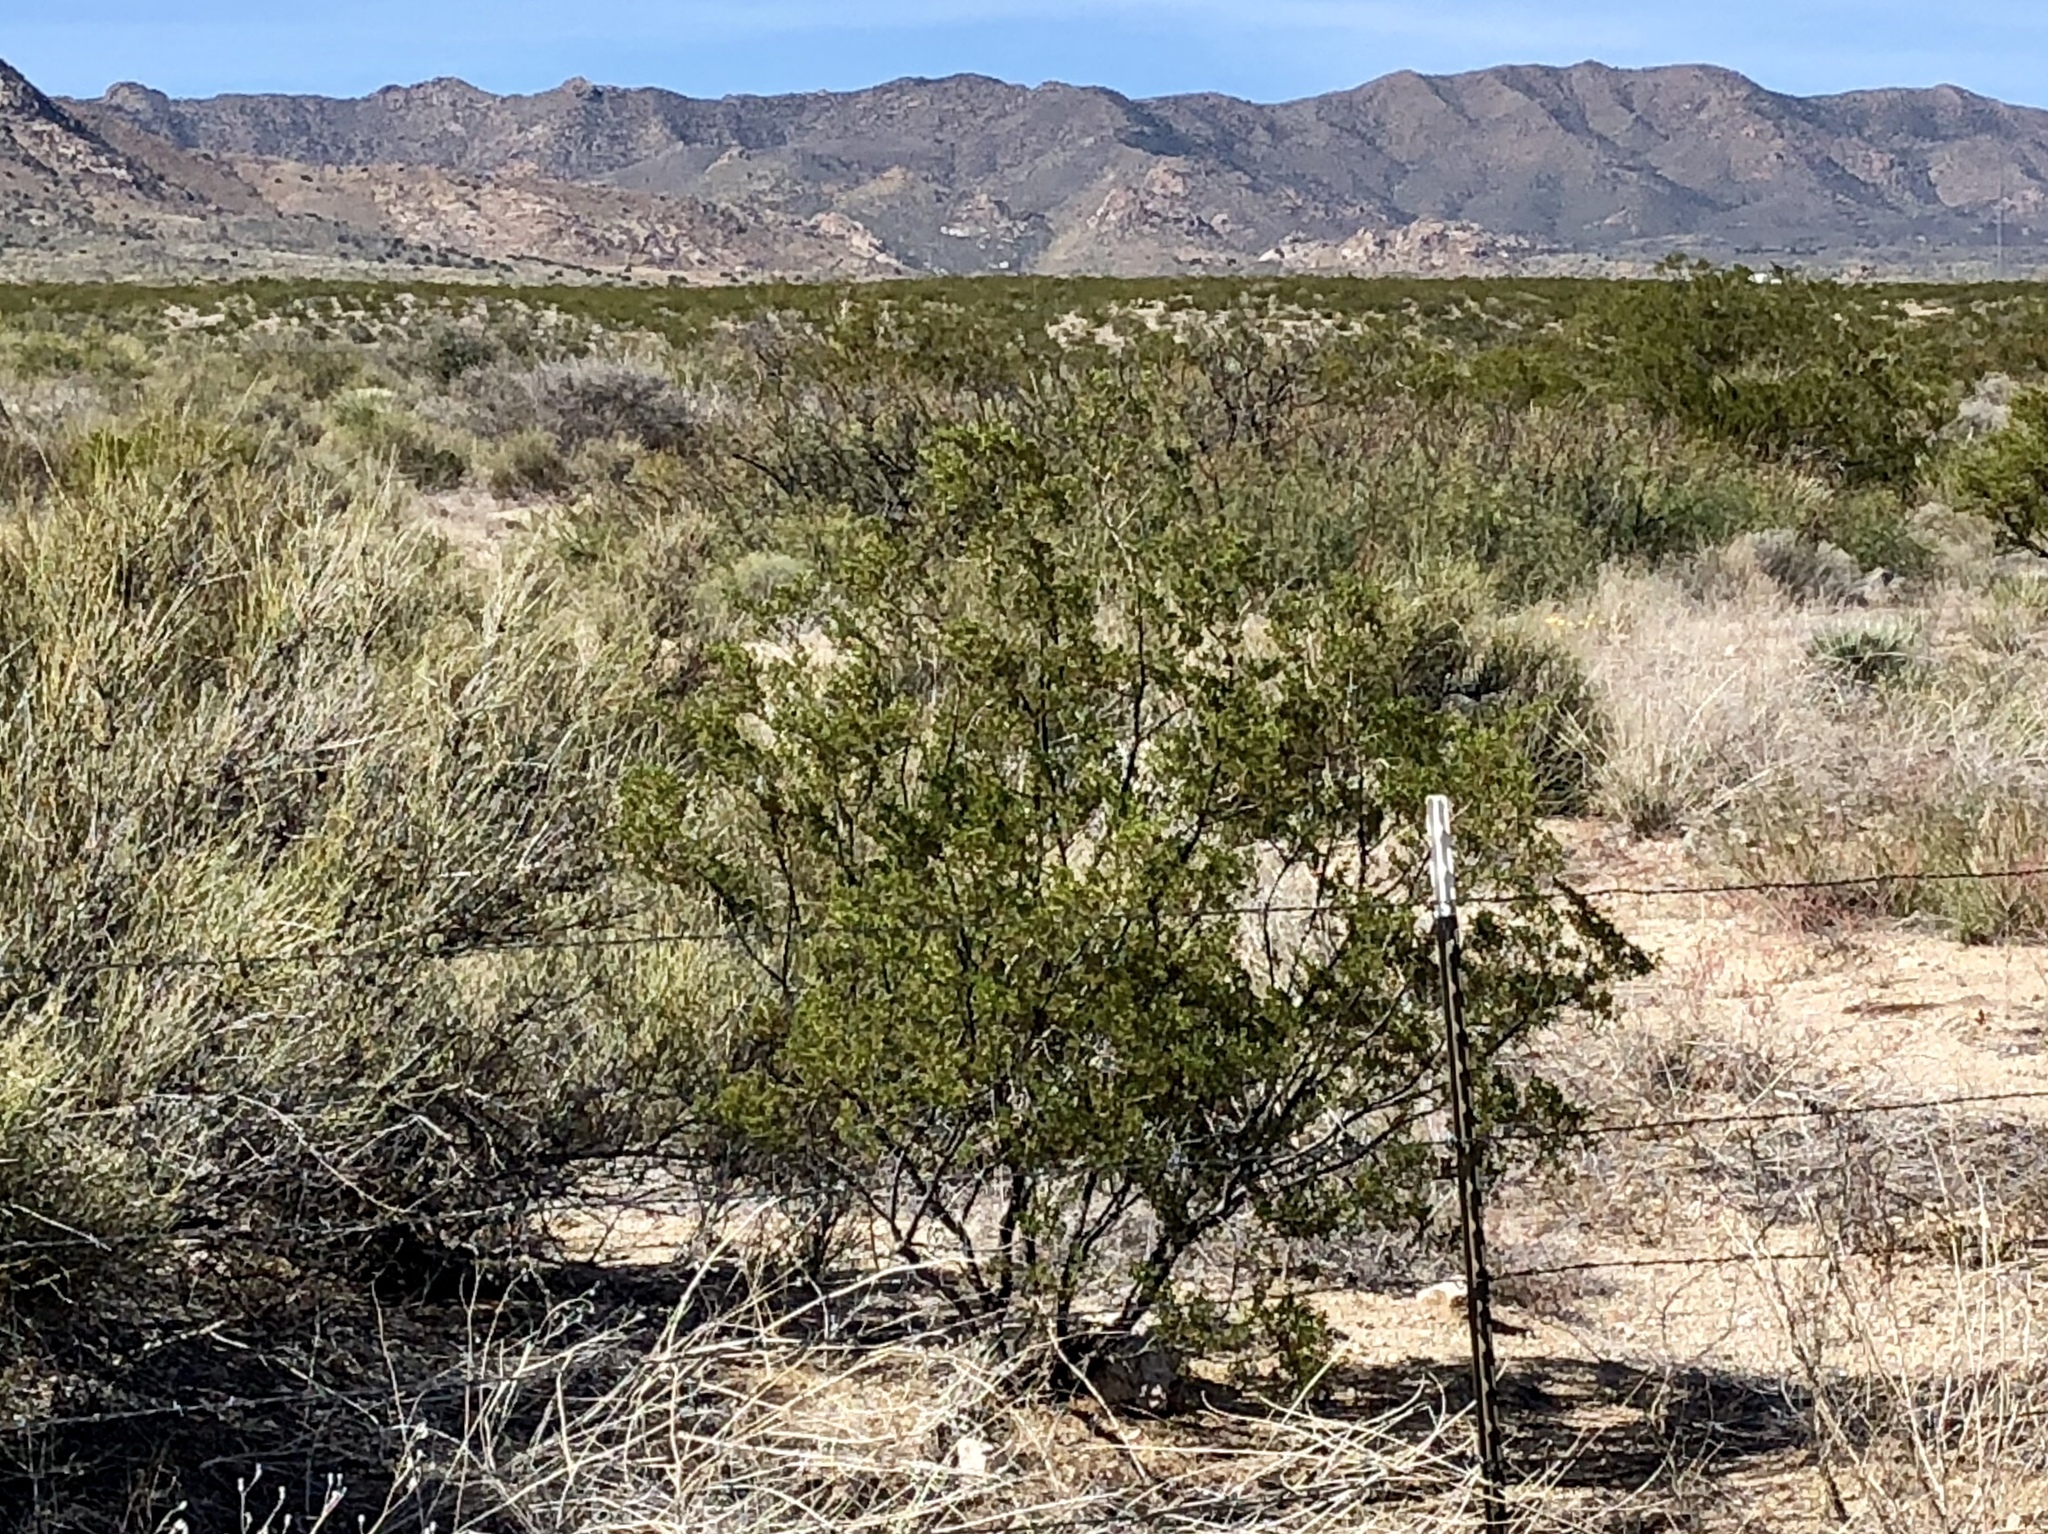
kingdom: Plantae
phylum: Tracheophyta
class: Magnoliopsida
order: Zygophyllales
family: Zygophyllaceae
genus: Larrea
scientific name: Larrea tridentata
